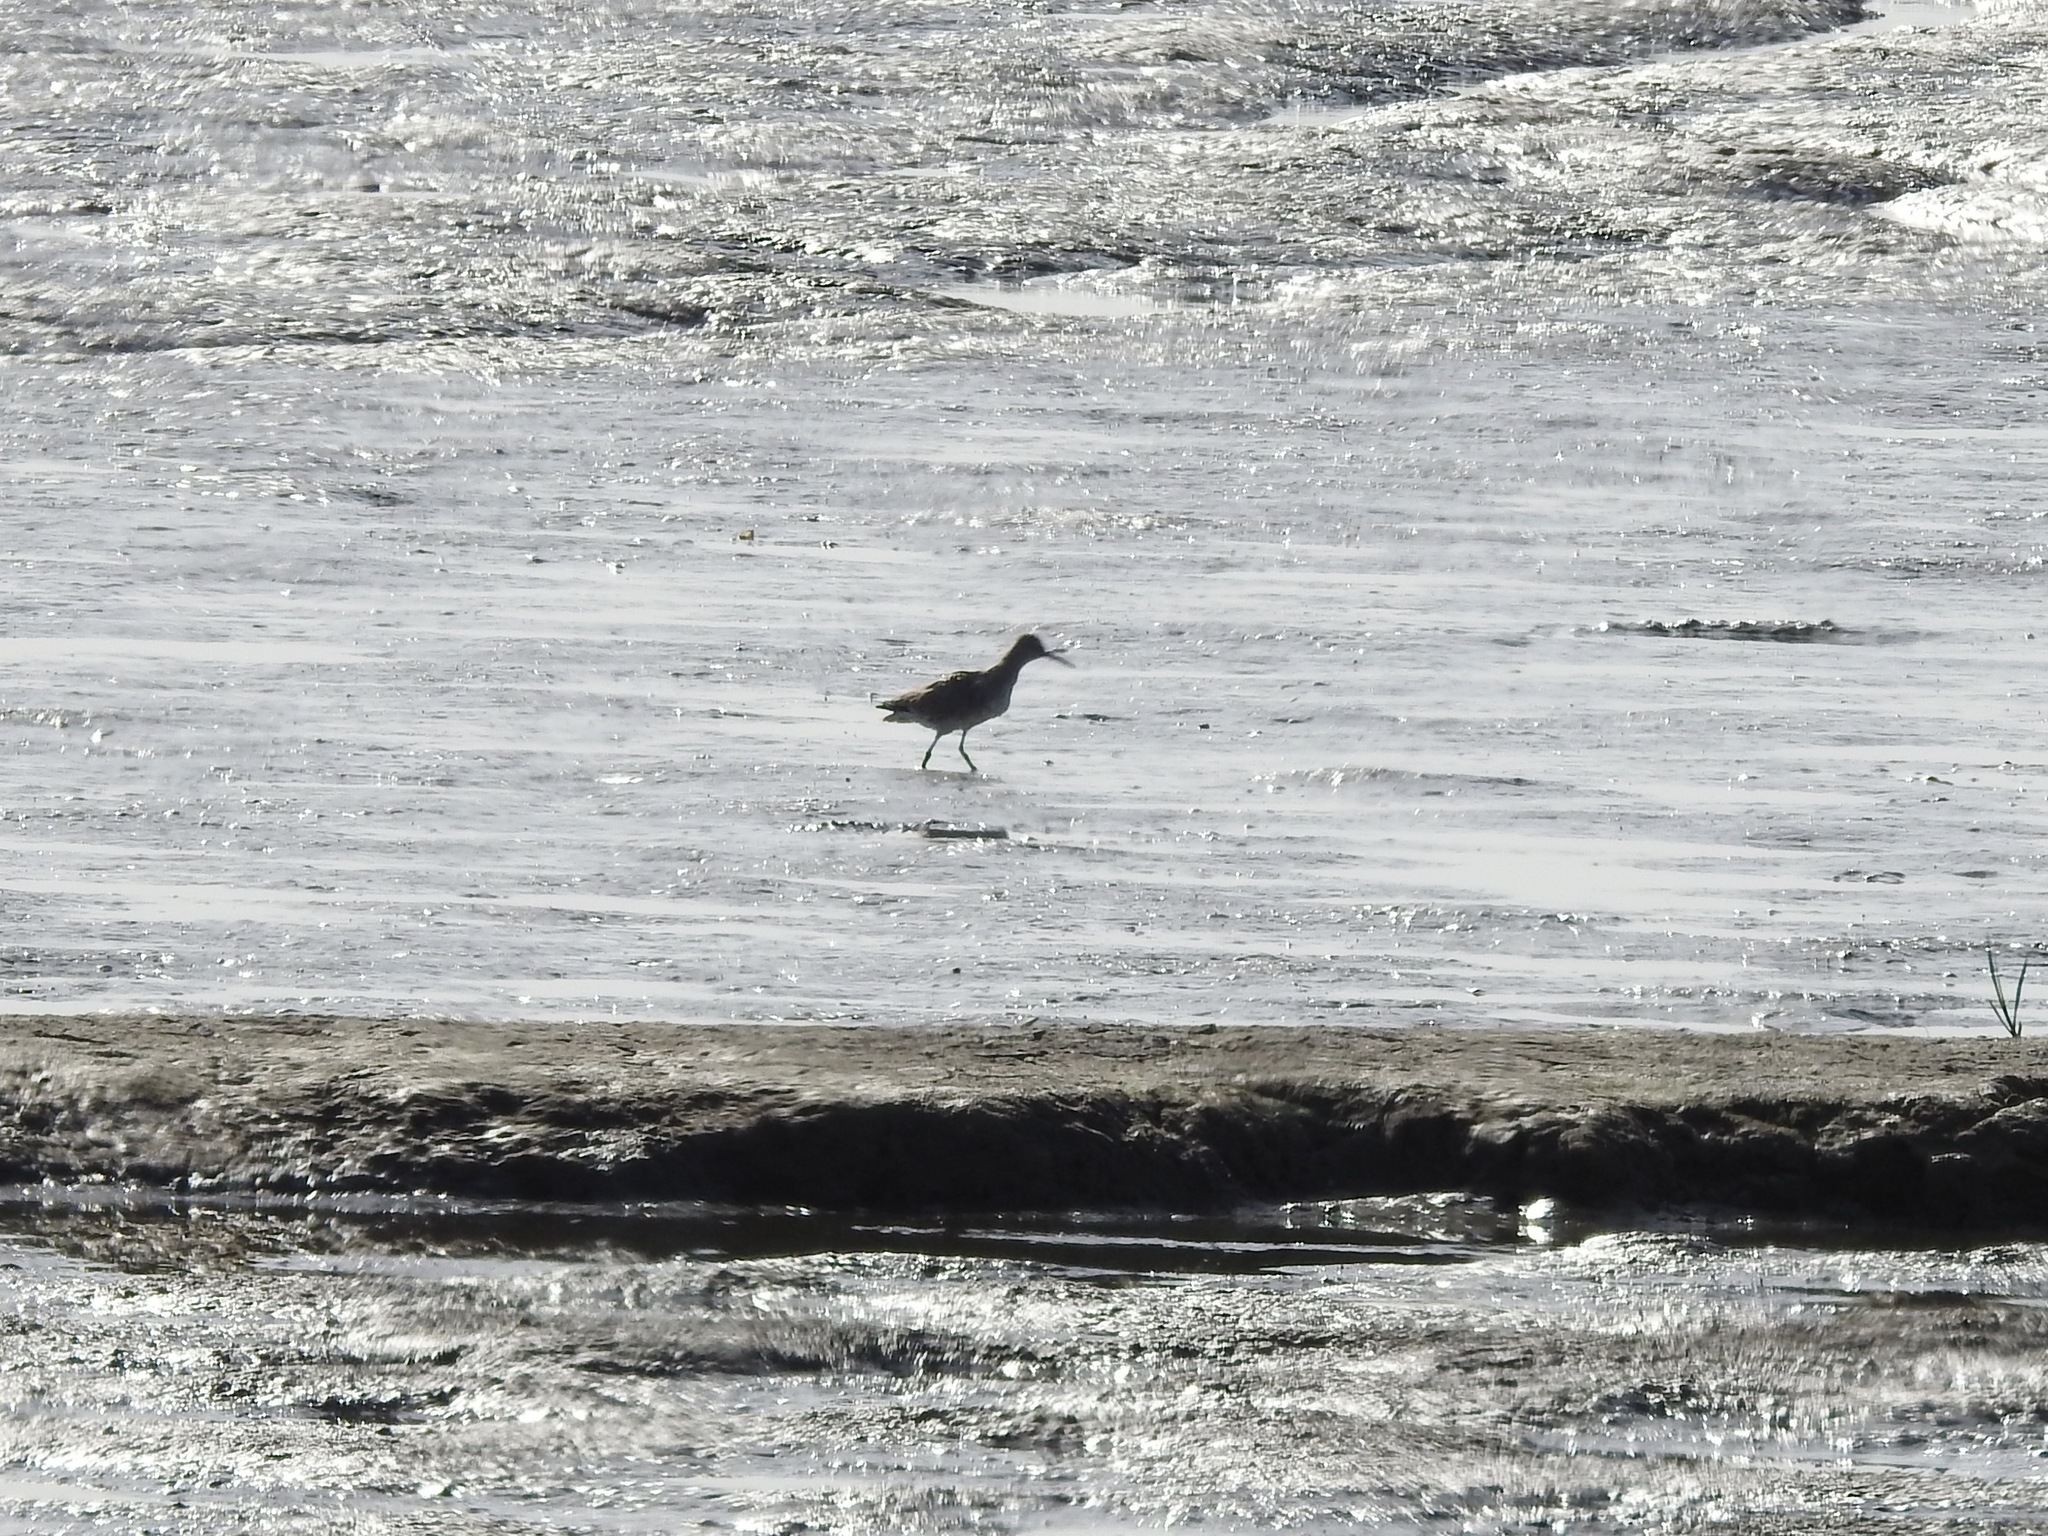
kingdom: Animalia
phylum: Chordata
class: Aves
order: Charadriiformes
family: Scolopacidae
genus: Tringa
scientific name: Tringa semipalmata
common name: Willet
